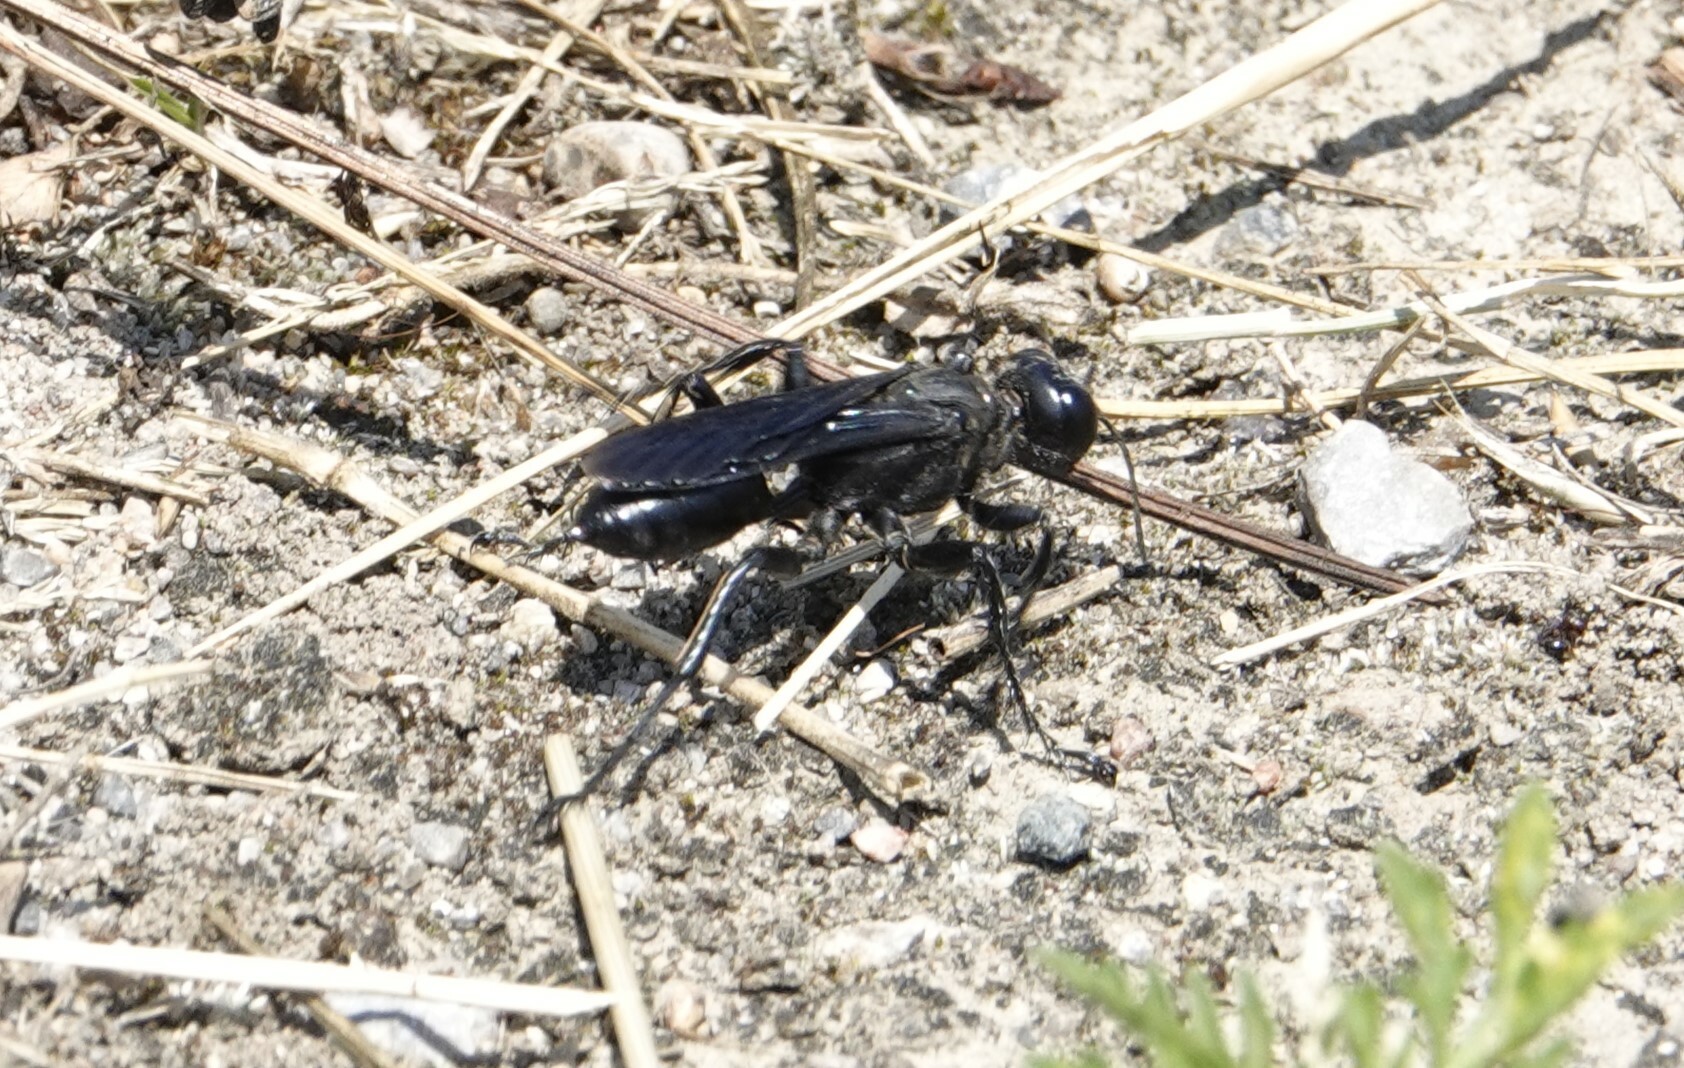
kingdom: Animalia
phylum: Arthropoda
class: Insecta
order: Hymenoptera
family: Sphecidae
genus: Prionyx
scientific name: Prionyx atratus
